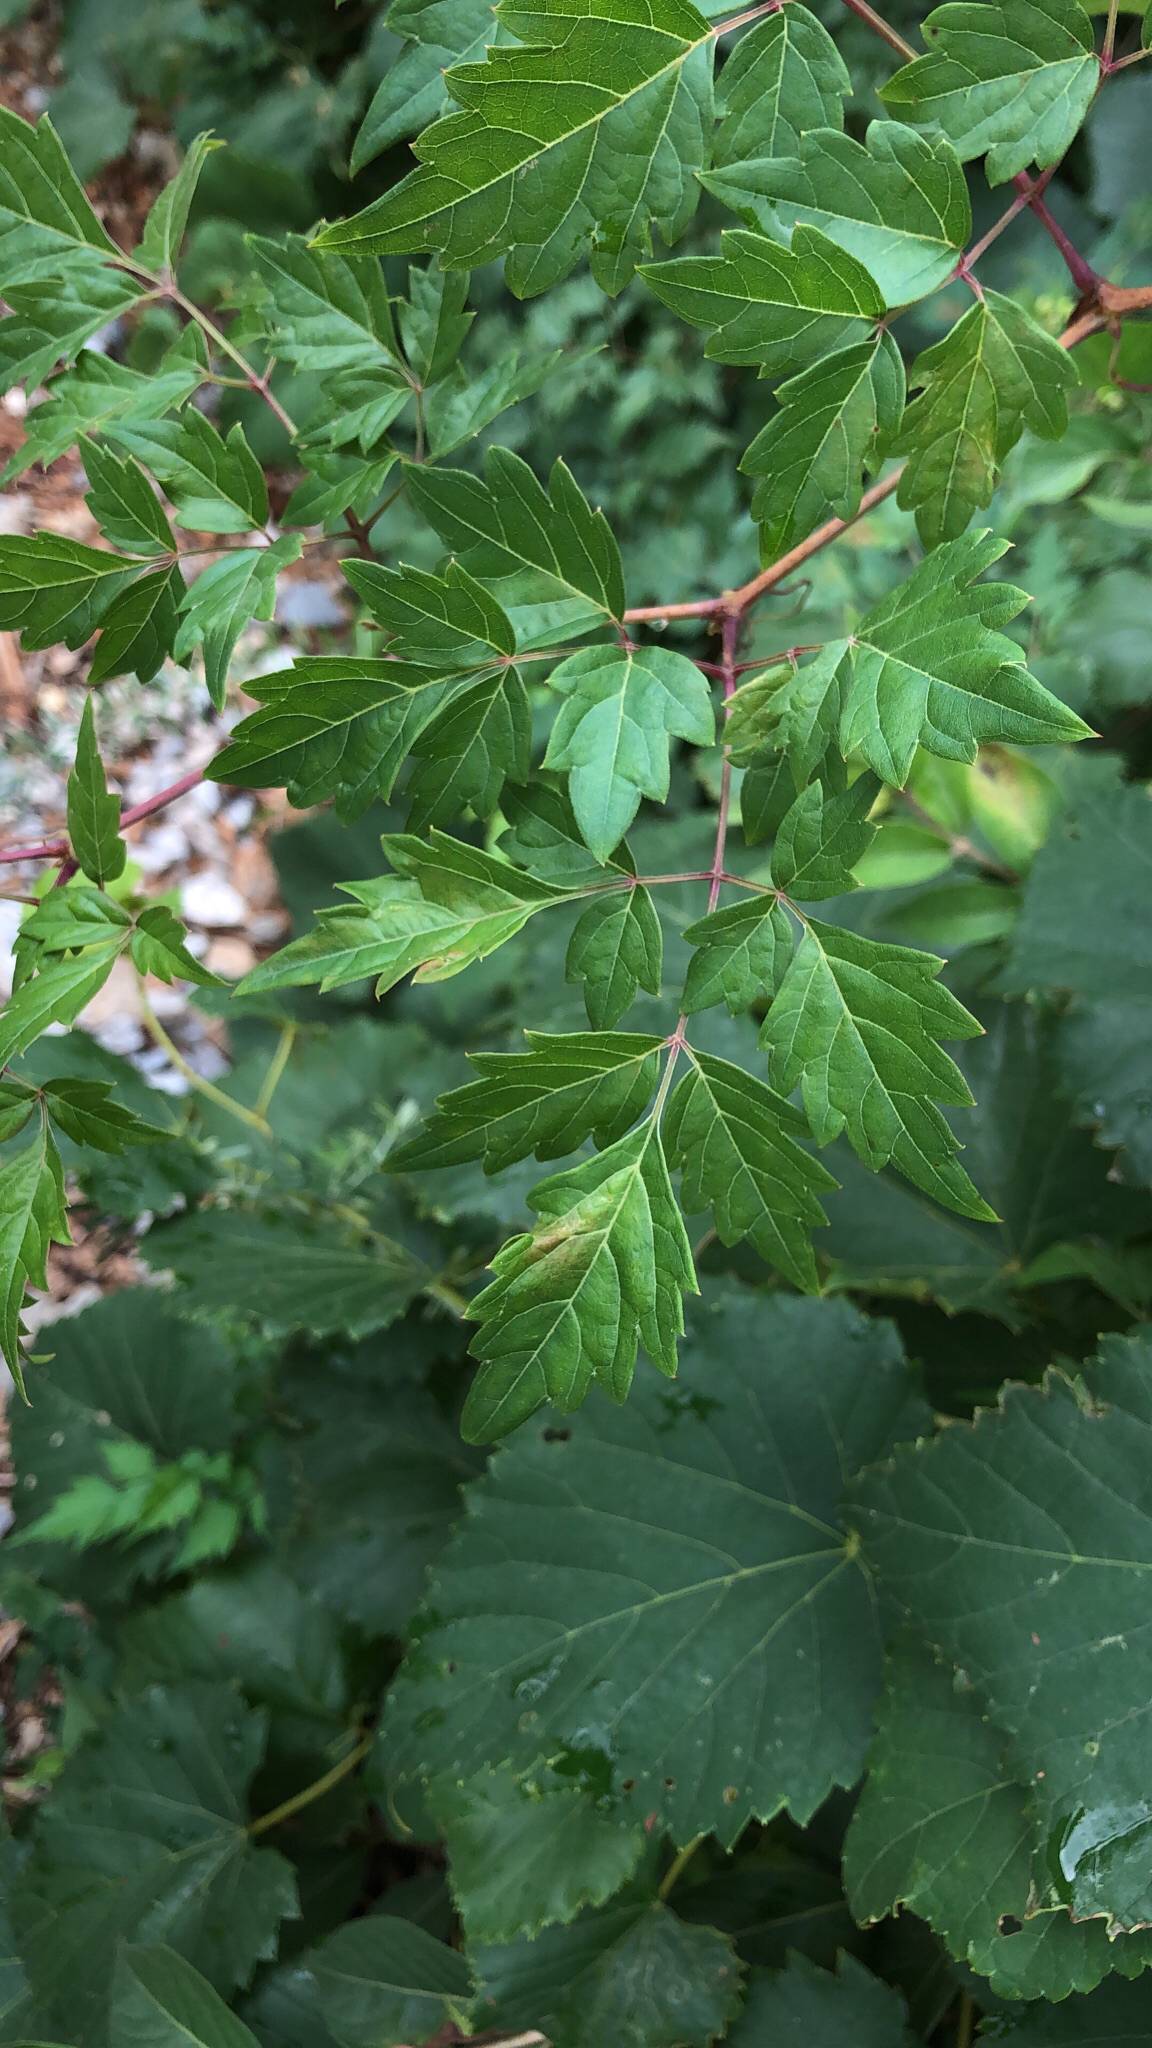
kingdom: Plantae
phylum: Tracheophyta
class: Magnoliopsida
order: Vitales
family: Vitaceae
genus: Nekemias
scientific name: Nekemias arborea
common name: Peppervine
